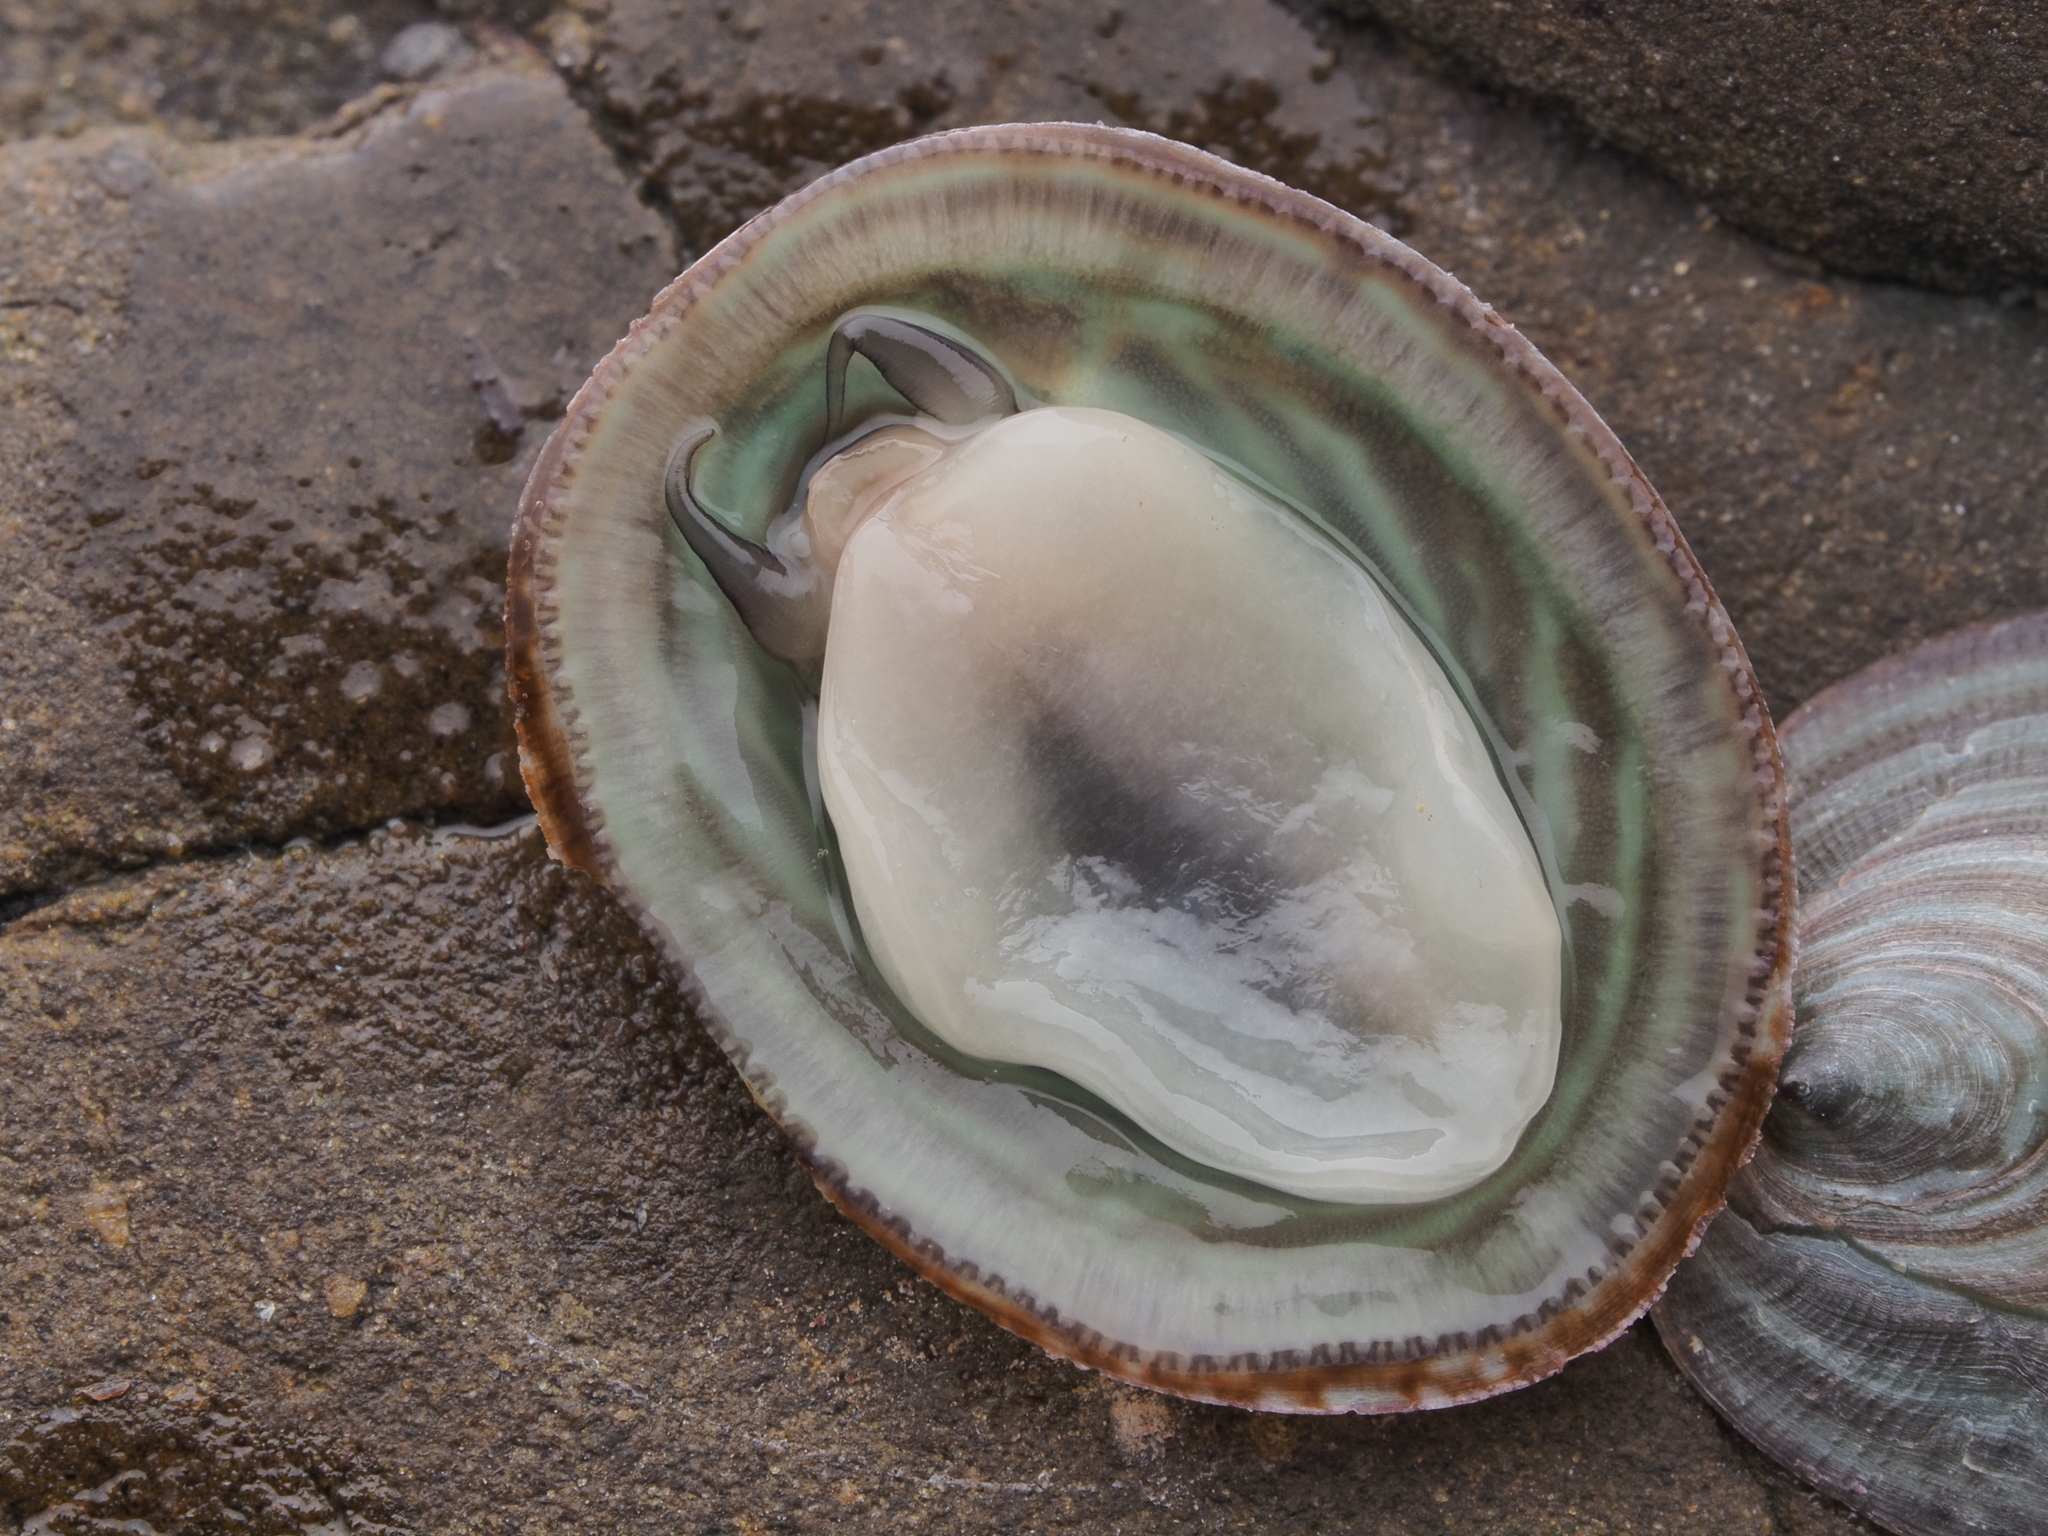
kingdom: Animalia
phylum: Mollusca
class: Gastropoda
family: Lottiidae
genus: Atalacmea
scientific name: Atalacmea fragilis
